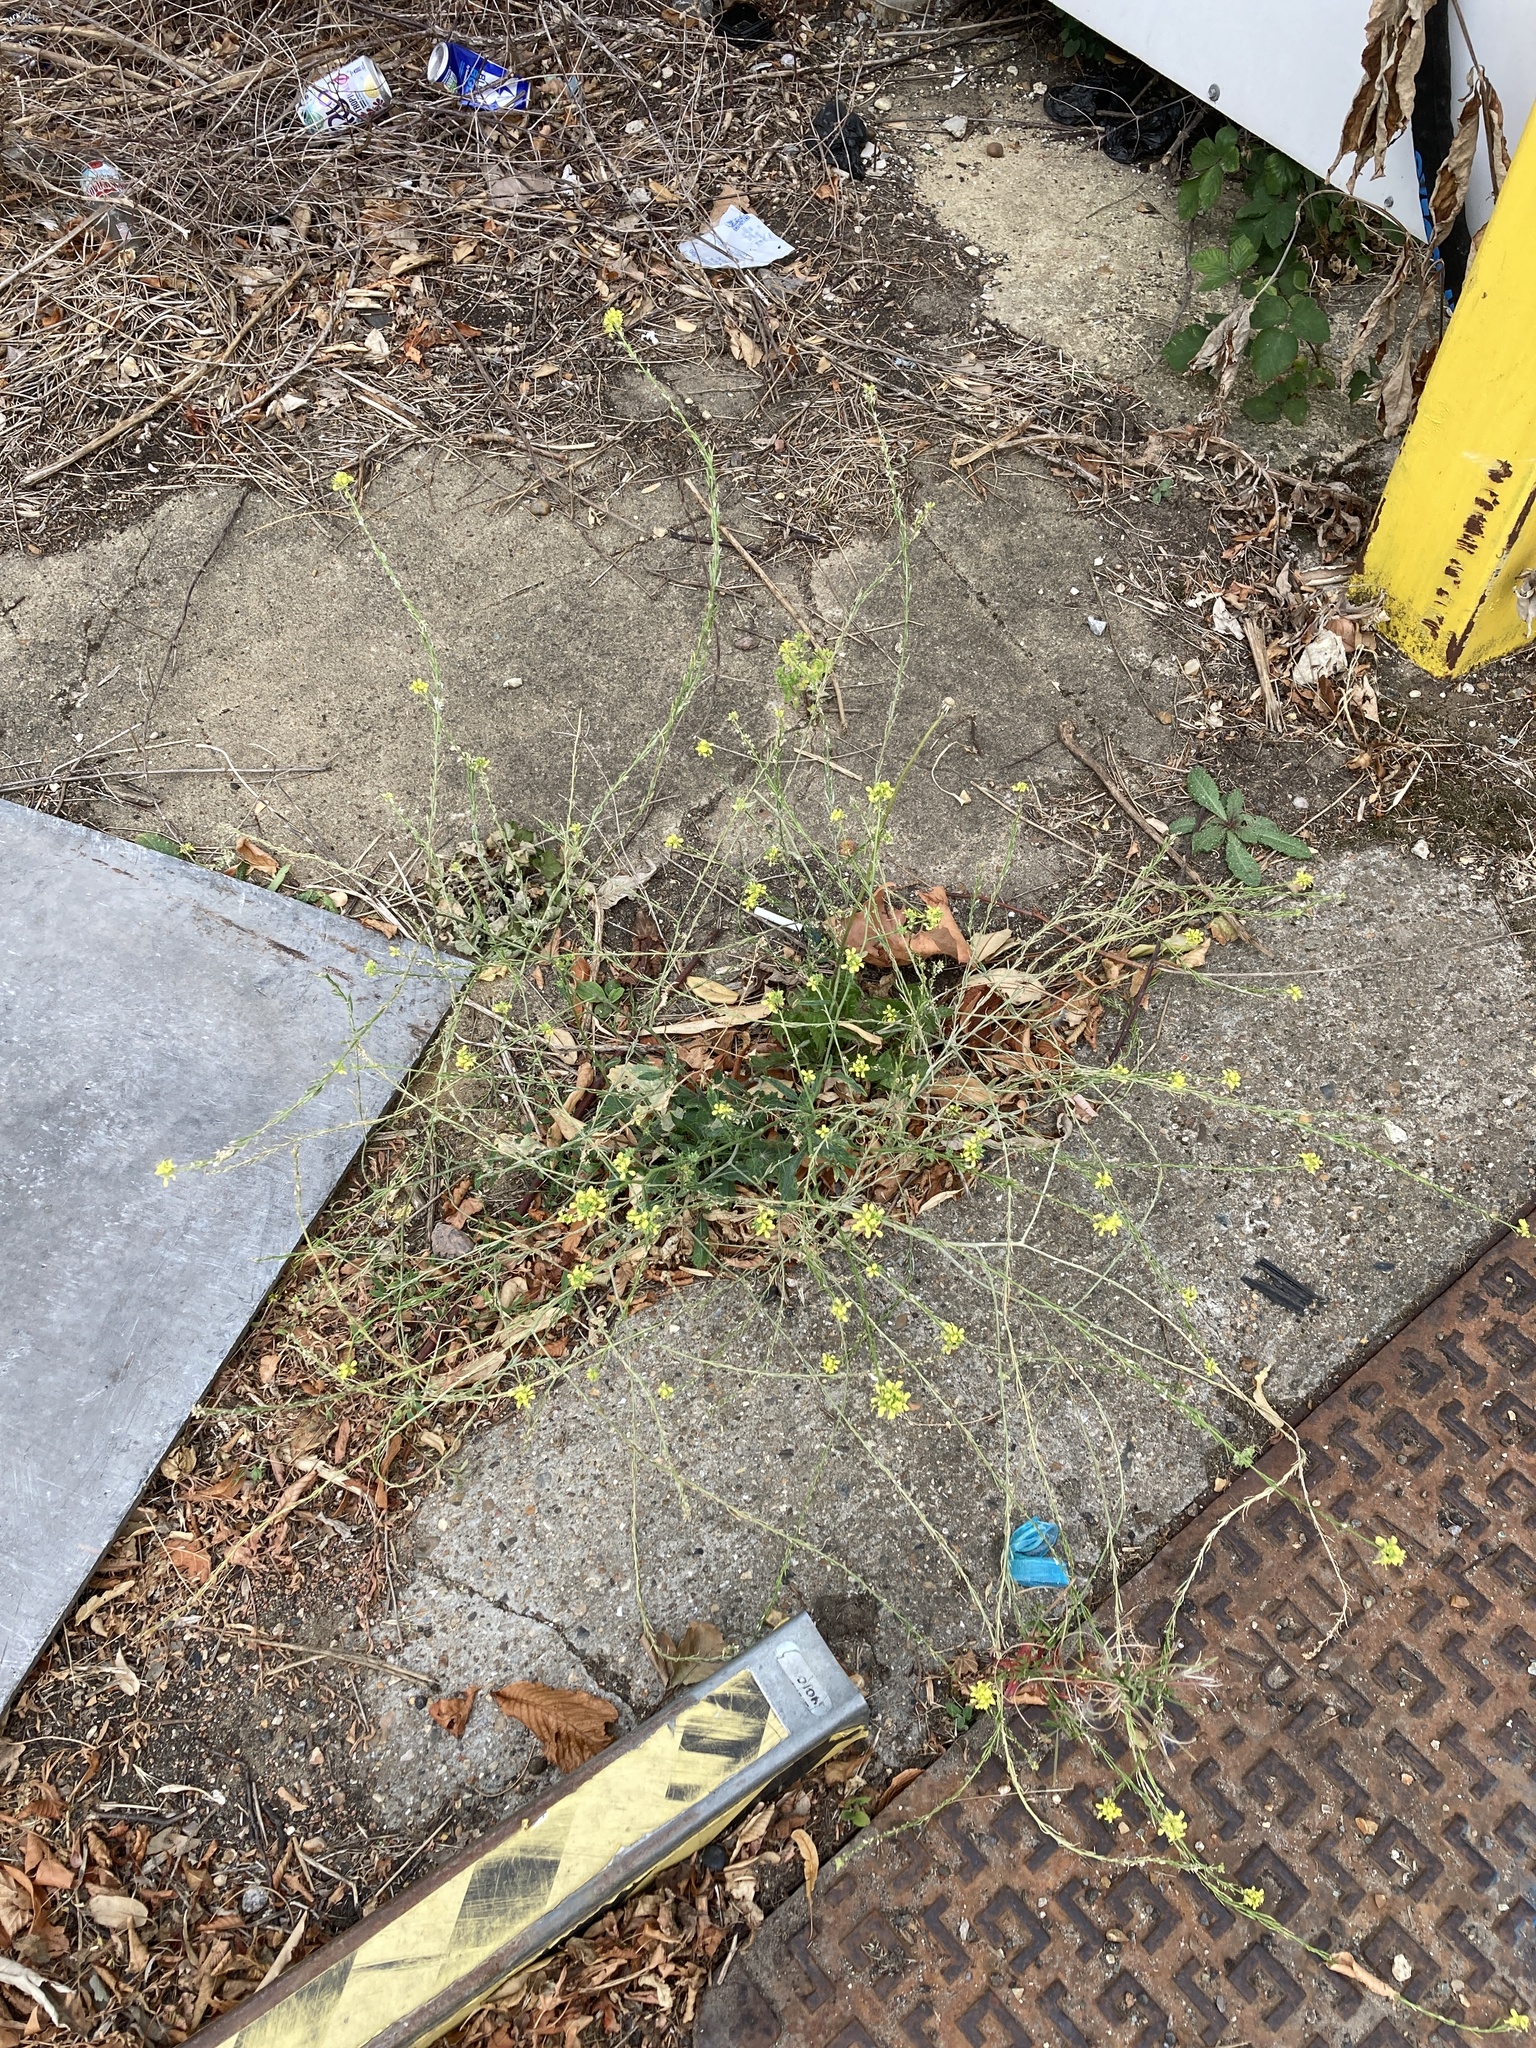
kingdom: Plantae
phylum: Tracheophyta
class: Magnoliopsida
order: Brassicales
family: Brassicaceae
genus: Hirschfeldia
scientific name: Hirschfeldia incana
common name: Hoary mustard
